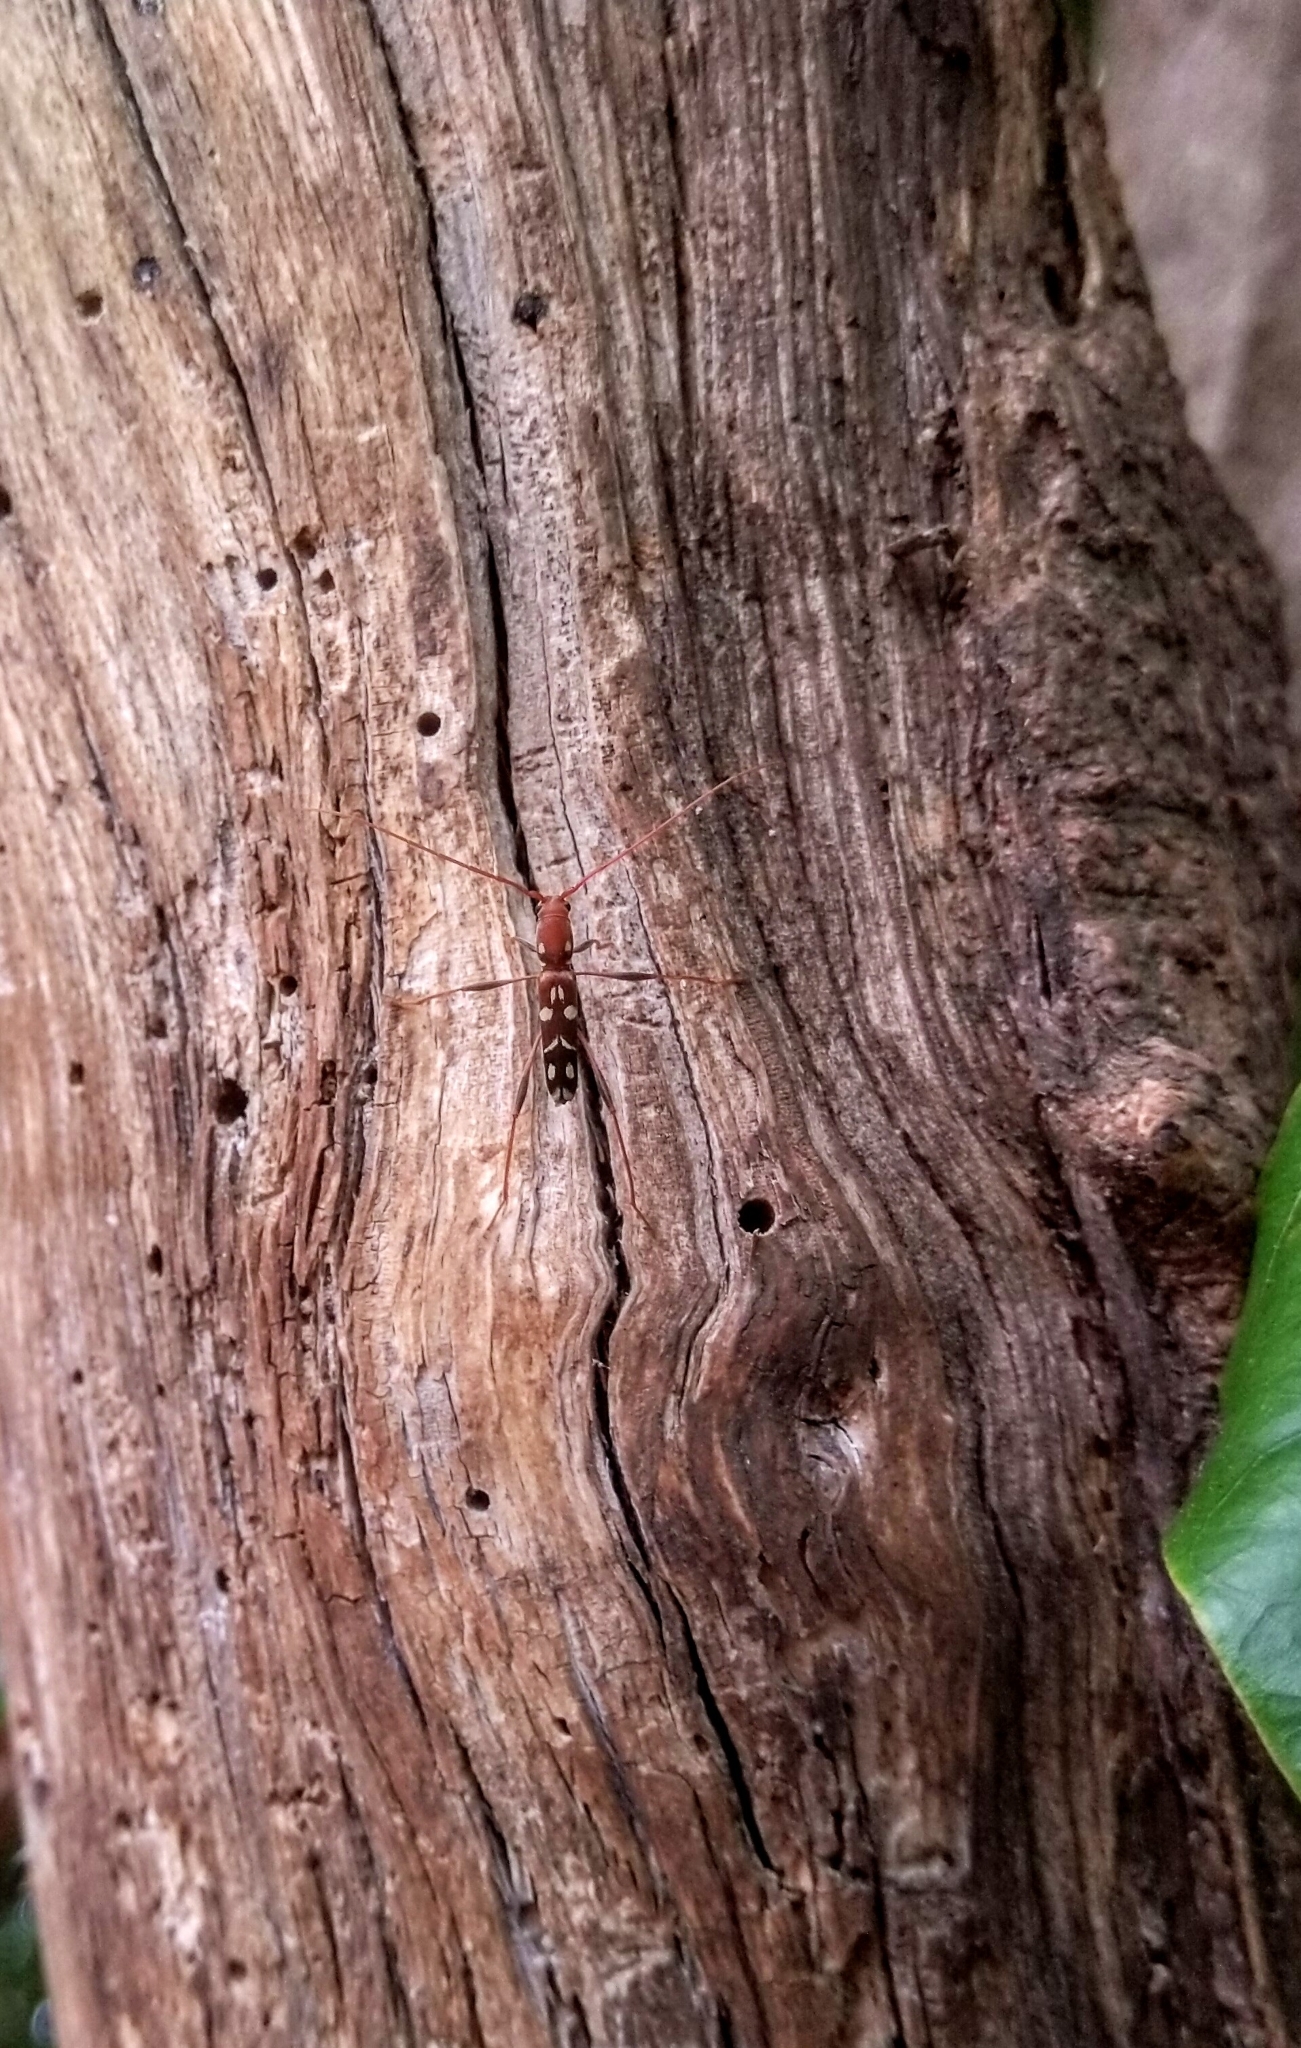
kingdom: Animalia
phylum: Arthropoda
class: Insecta
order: Coleoptera
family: Cerambycidae
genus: Clytocera
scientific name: Clytocera chionospila
